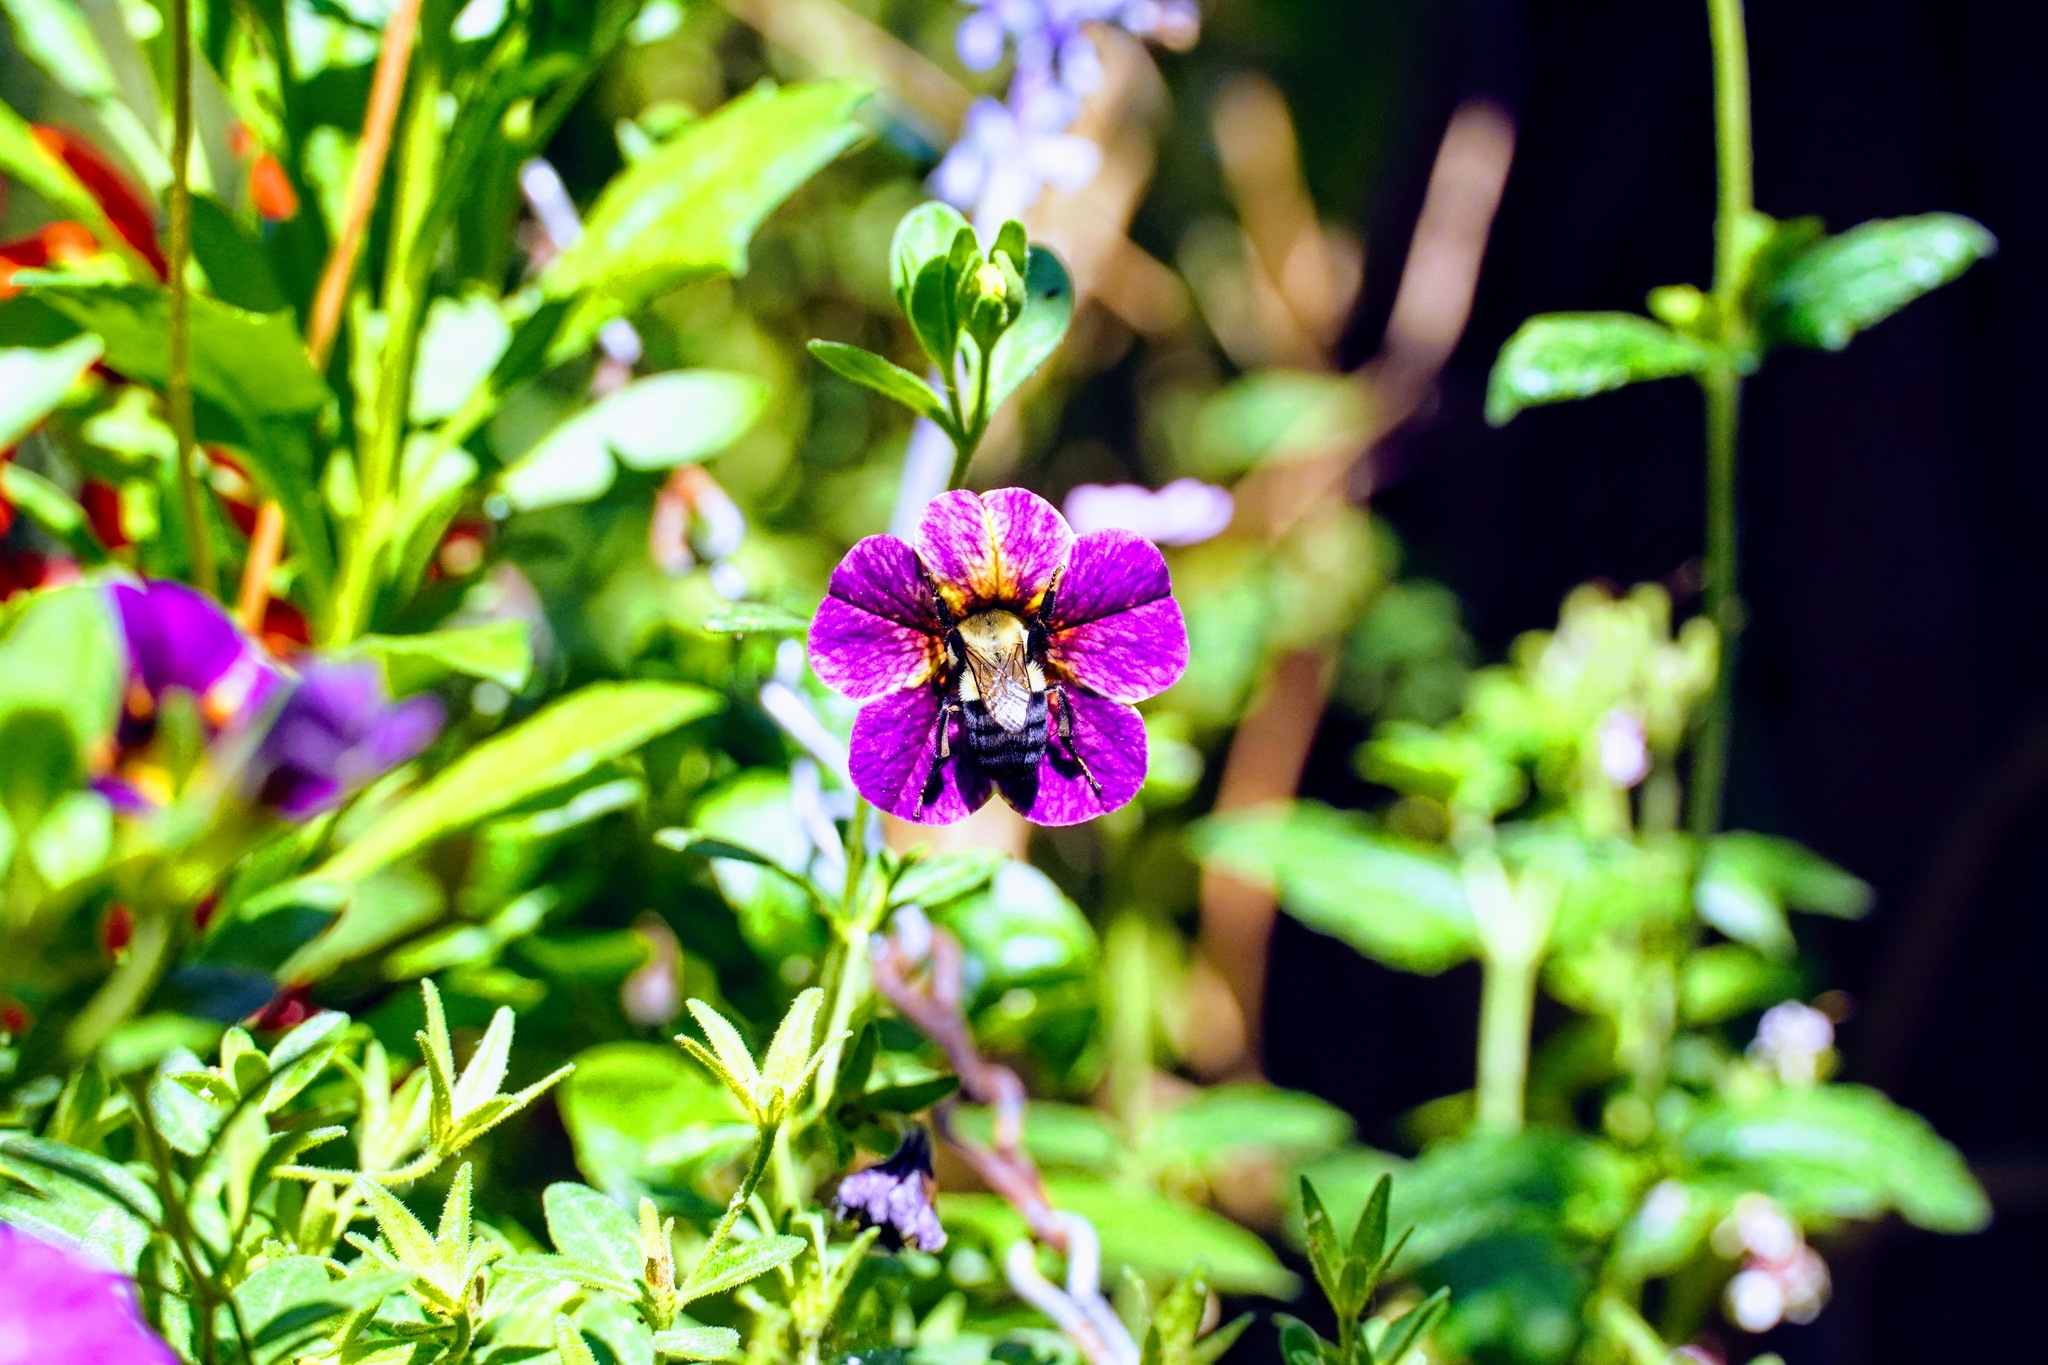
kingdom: Animalia
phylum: Arthropoda
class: Insecta
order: Hymenoptera
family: Apidae
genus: Bombus
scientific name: Bombus impatiens
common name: Common eastern bumble bee
